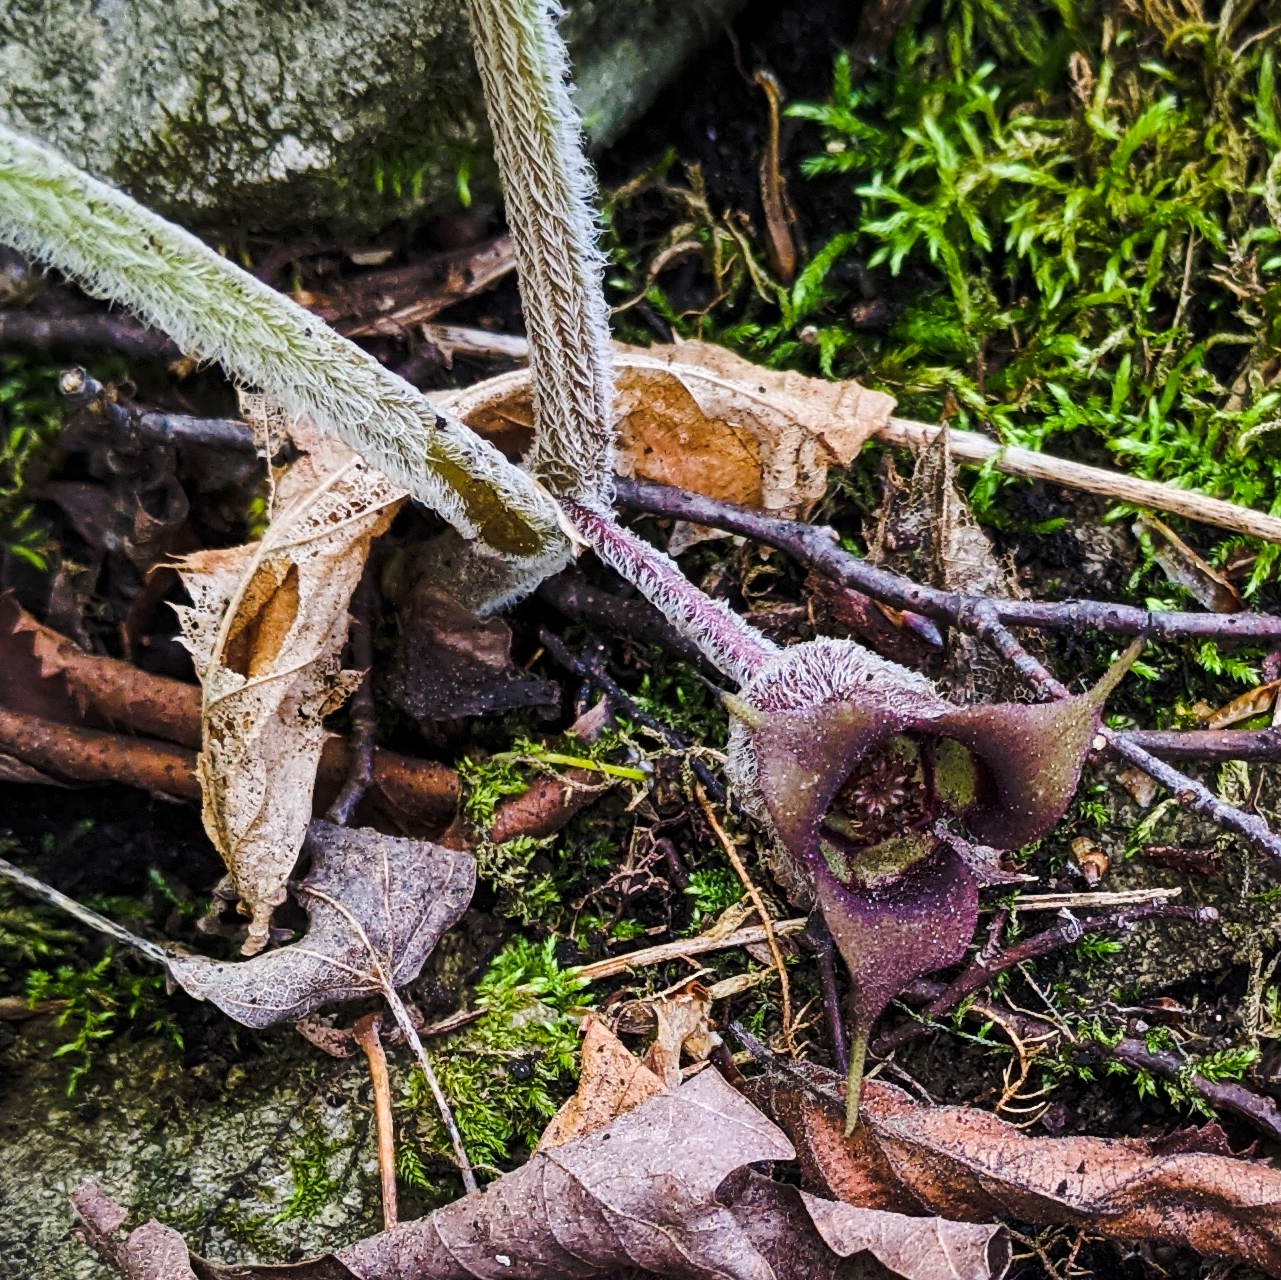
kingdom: Plantae
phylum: Tracheophyta
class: Magnoliopsida
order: Piperales
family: Aristolochiaceae
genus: Asarum
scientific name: Asarum canadense
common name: Wild ginger
